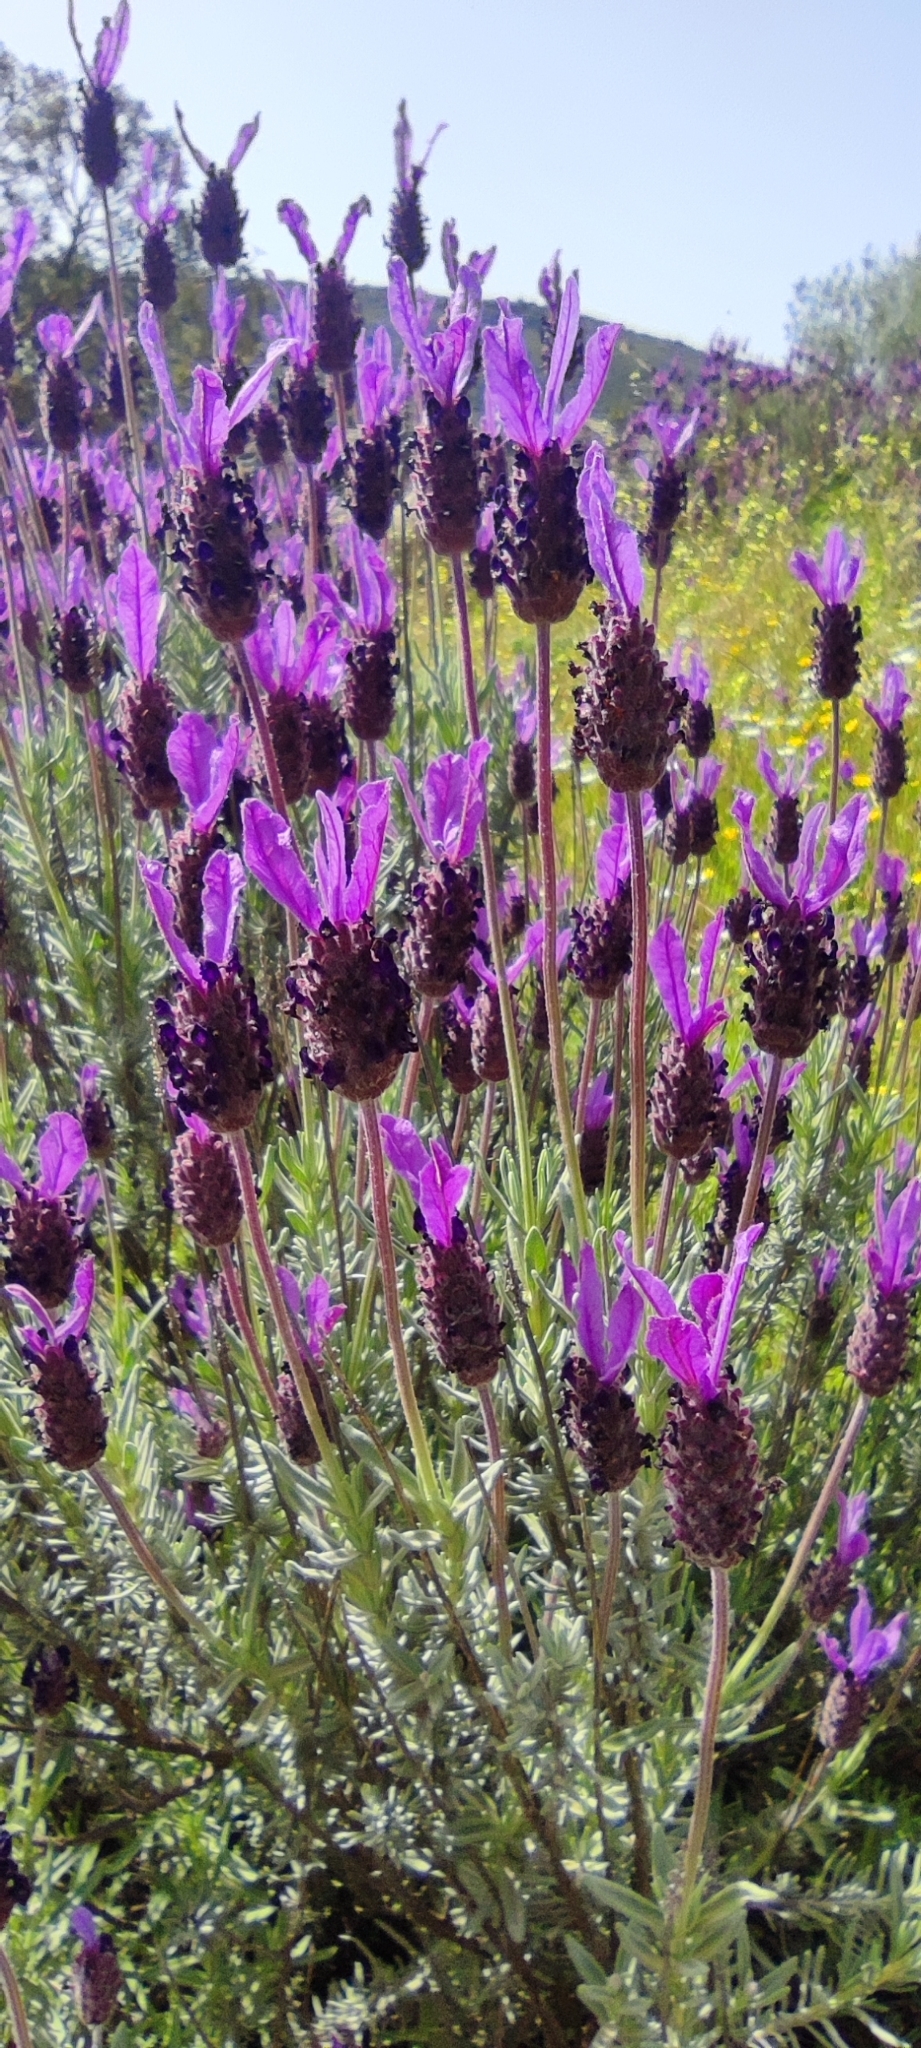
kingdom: Plantae
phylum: Tracheophyta
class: Magnoliopsida
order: Lamiales
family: Lamiaceae
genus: Lavandula
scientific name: Lavandula pedunculata
